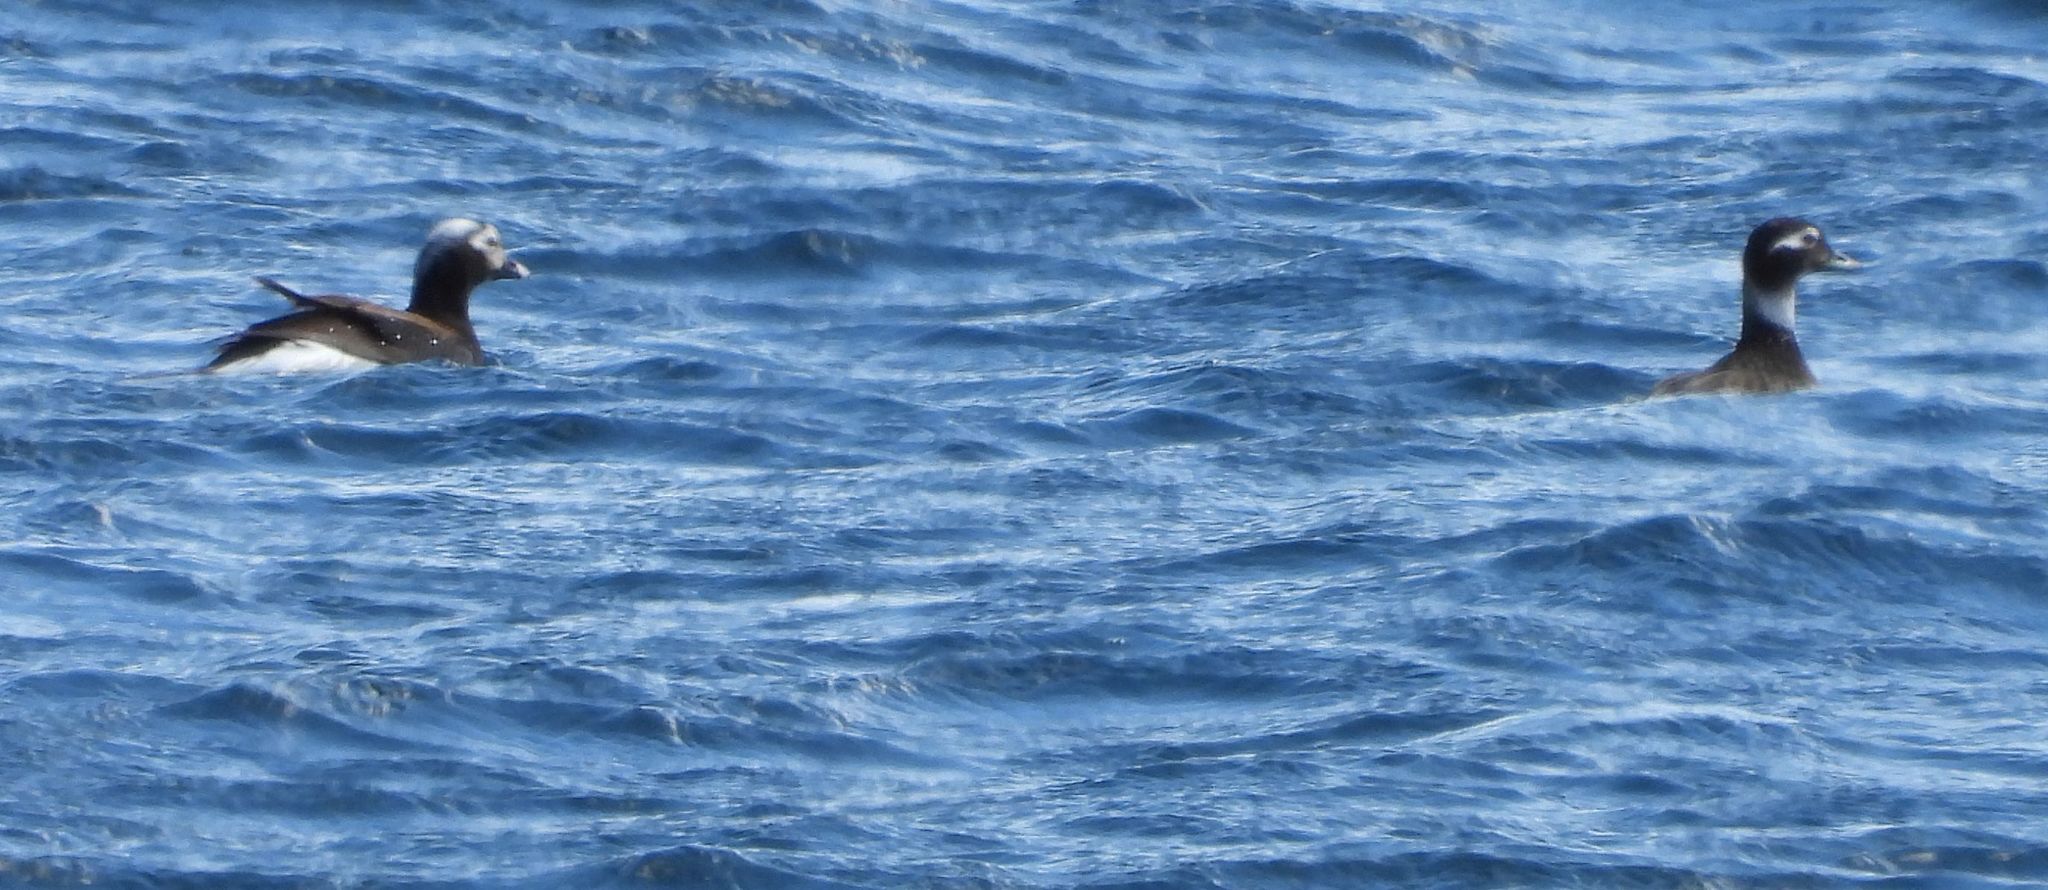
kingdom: Animalia
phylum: Chordata
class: Aves
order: Anseriformes
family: Anatidae
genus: Clangula
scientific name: Clangula hyemalis
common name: Long-tailed duck
